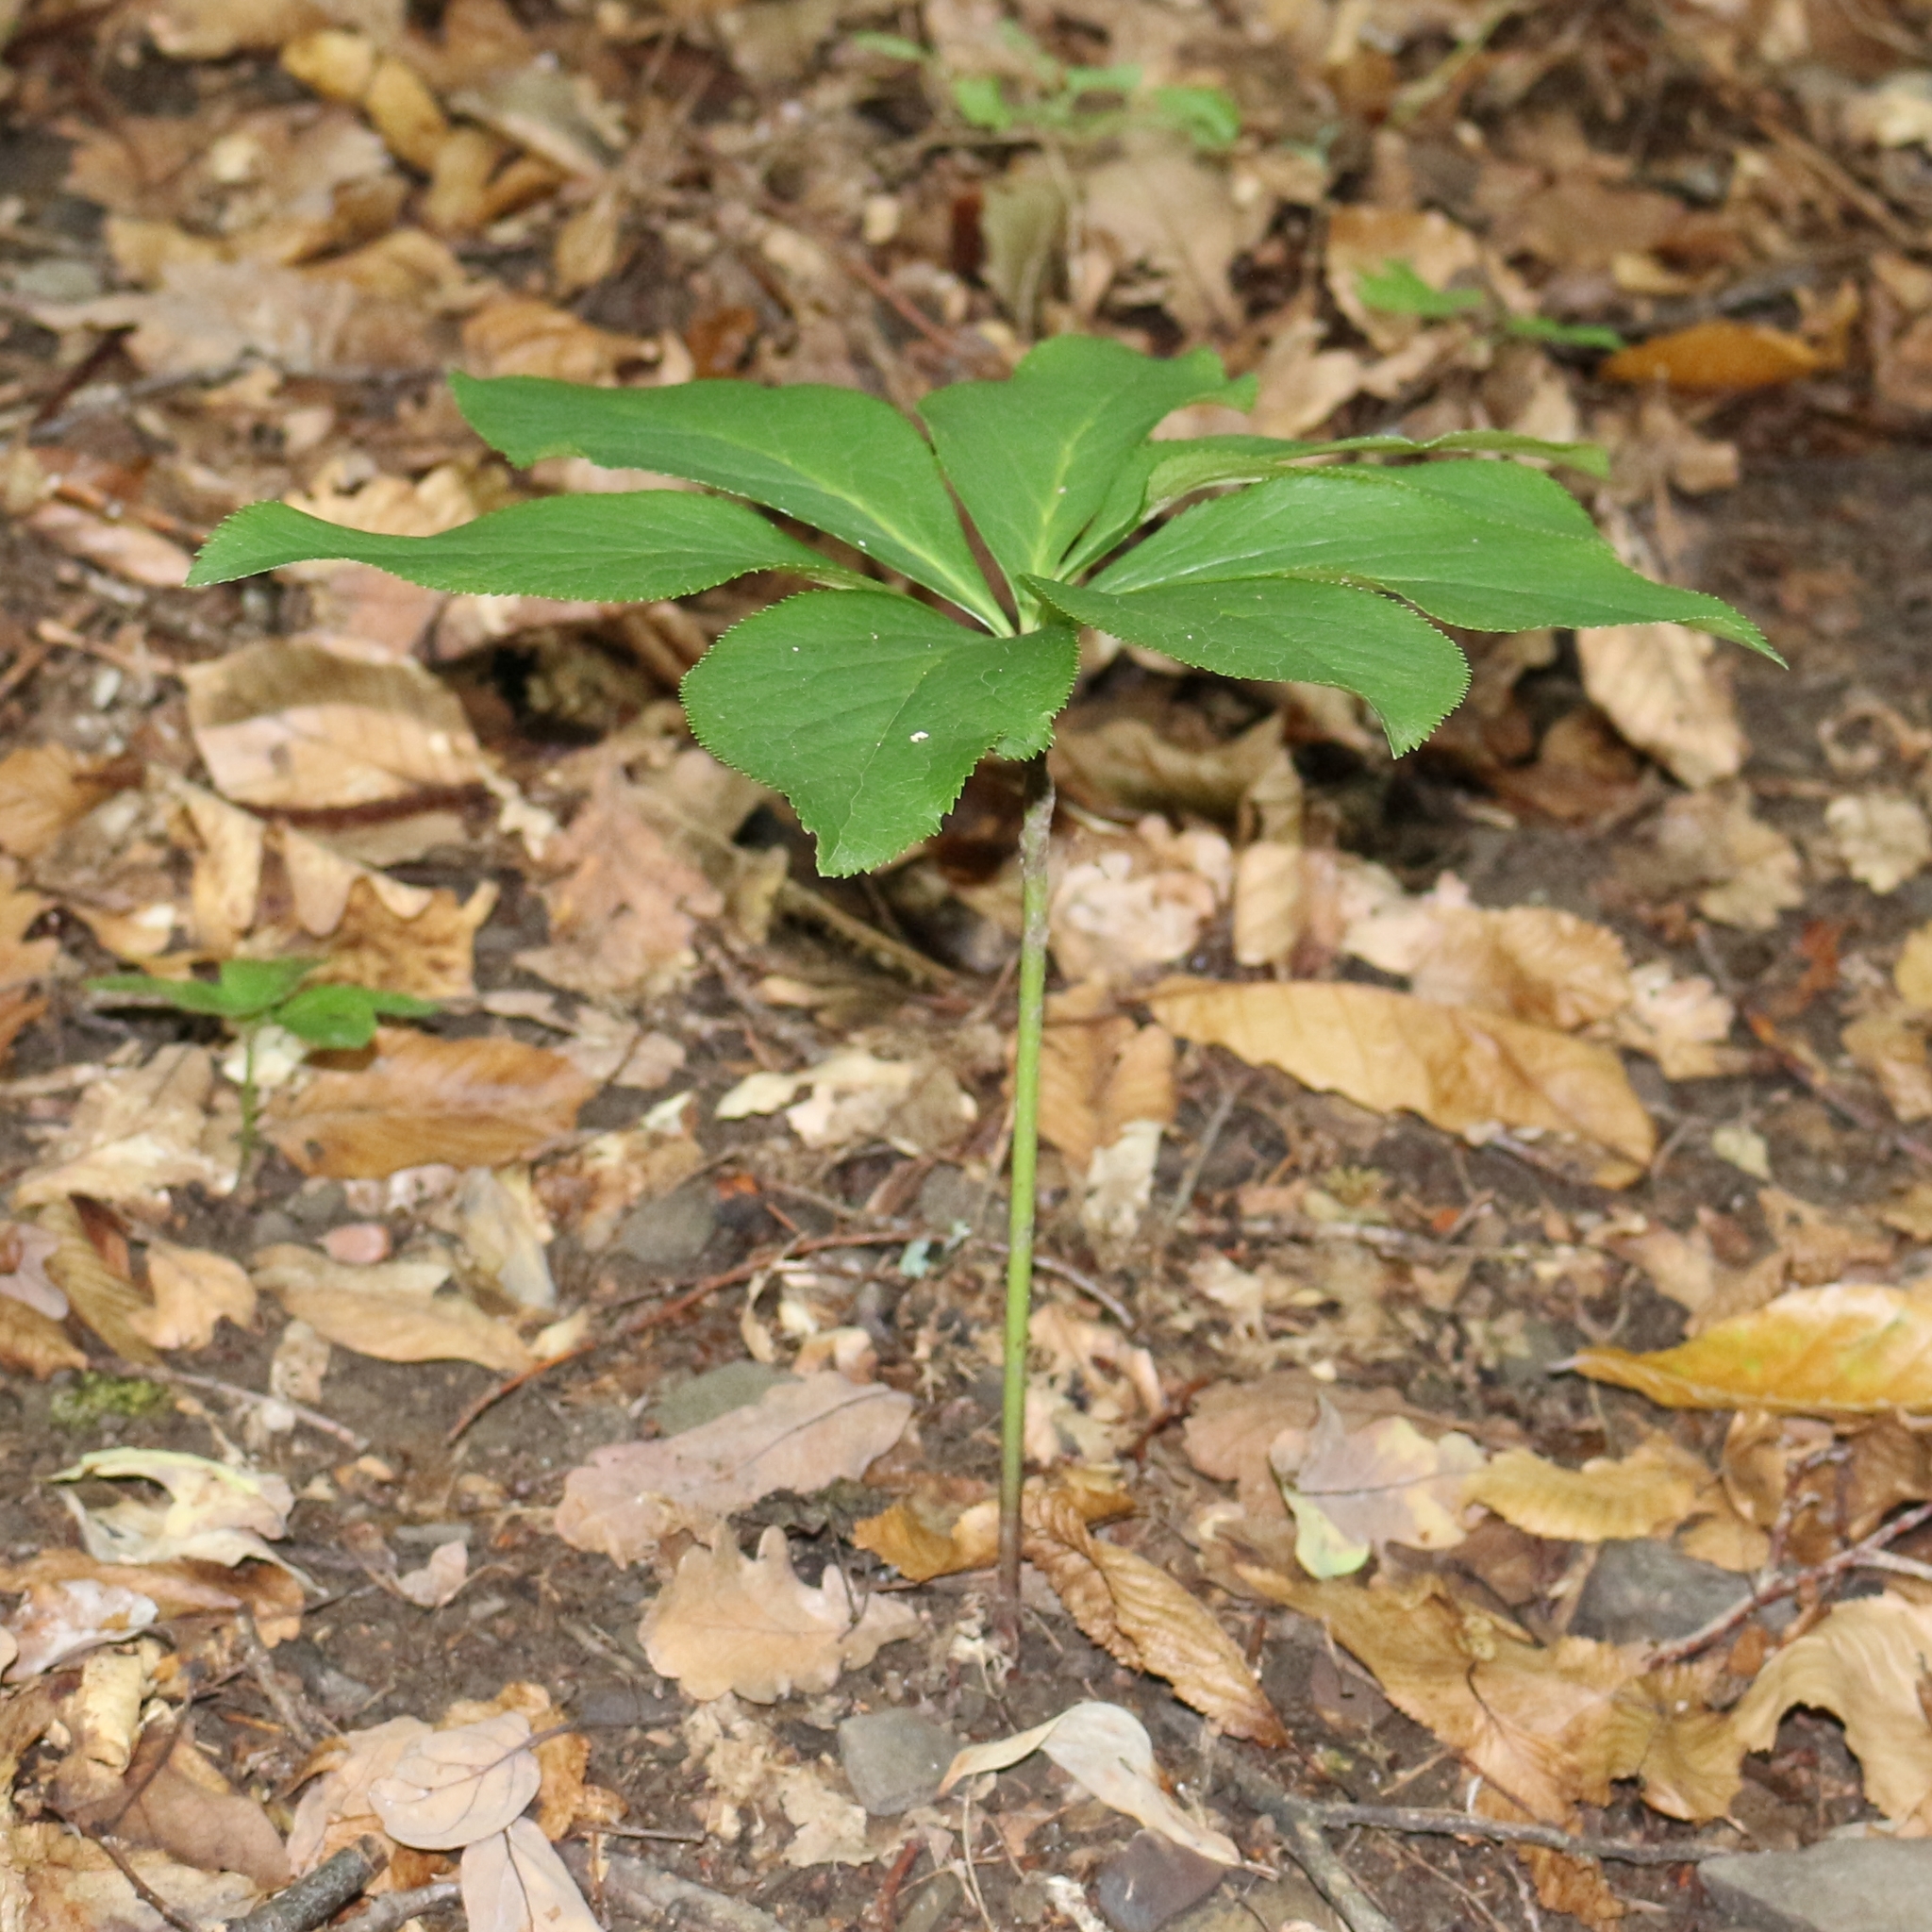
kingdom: Plantae
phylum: Tracheophyta
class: Magnoliopsida
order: Ranunculales
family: Ranunculaceae
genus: Helleborus
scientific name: Helleborus orientalis
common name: Lenten-rose
